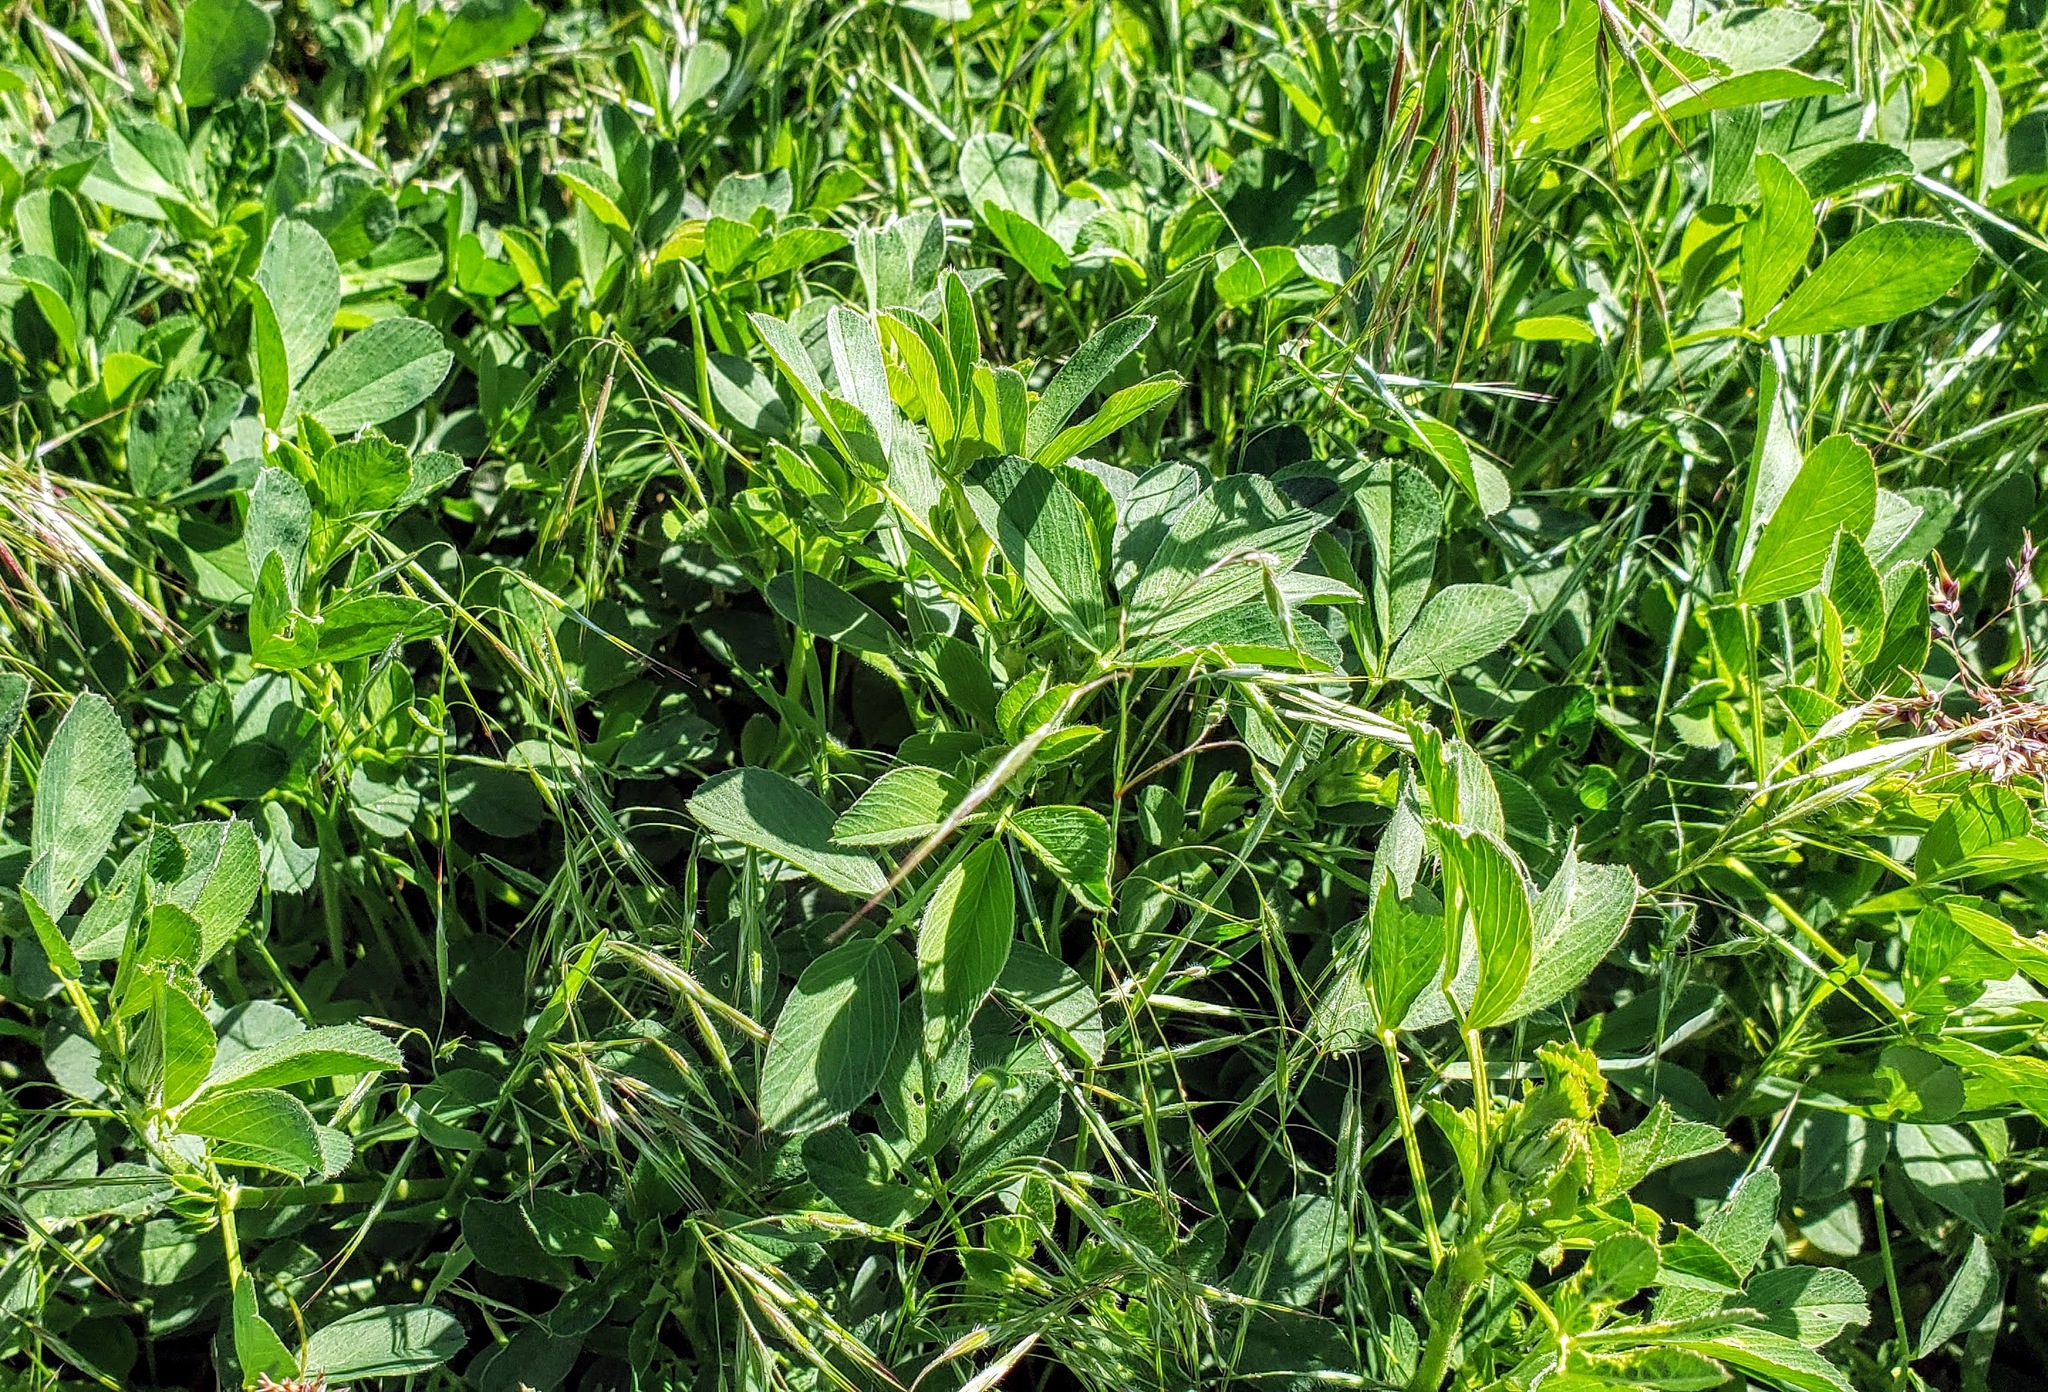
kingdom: Plantae
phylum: Tracheophyta
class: Magnoliopsida
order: Fabales
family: Fabaceae
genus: Medicago
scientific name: Medicago sativa
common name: Alfalfa
